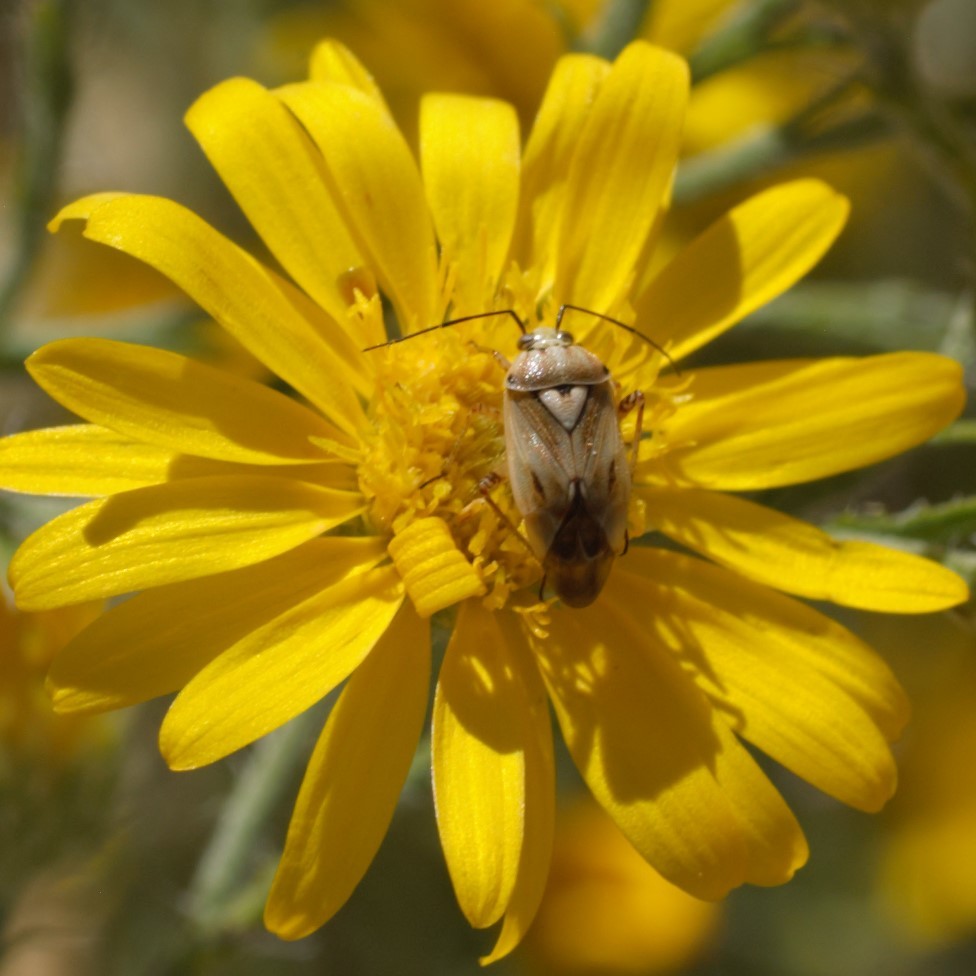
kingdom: Animalia
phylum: Arthropoda
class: Insecta
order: Hemiptera
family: Miridae
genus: Lygus
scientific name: Lygus
